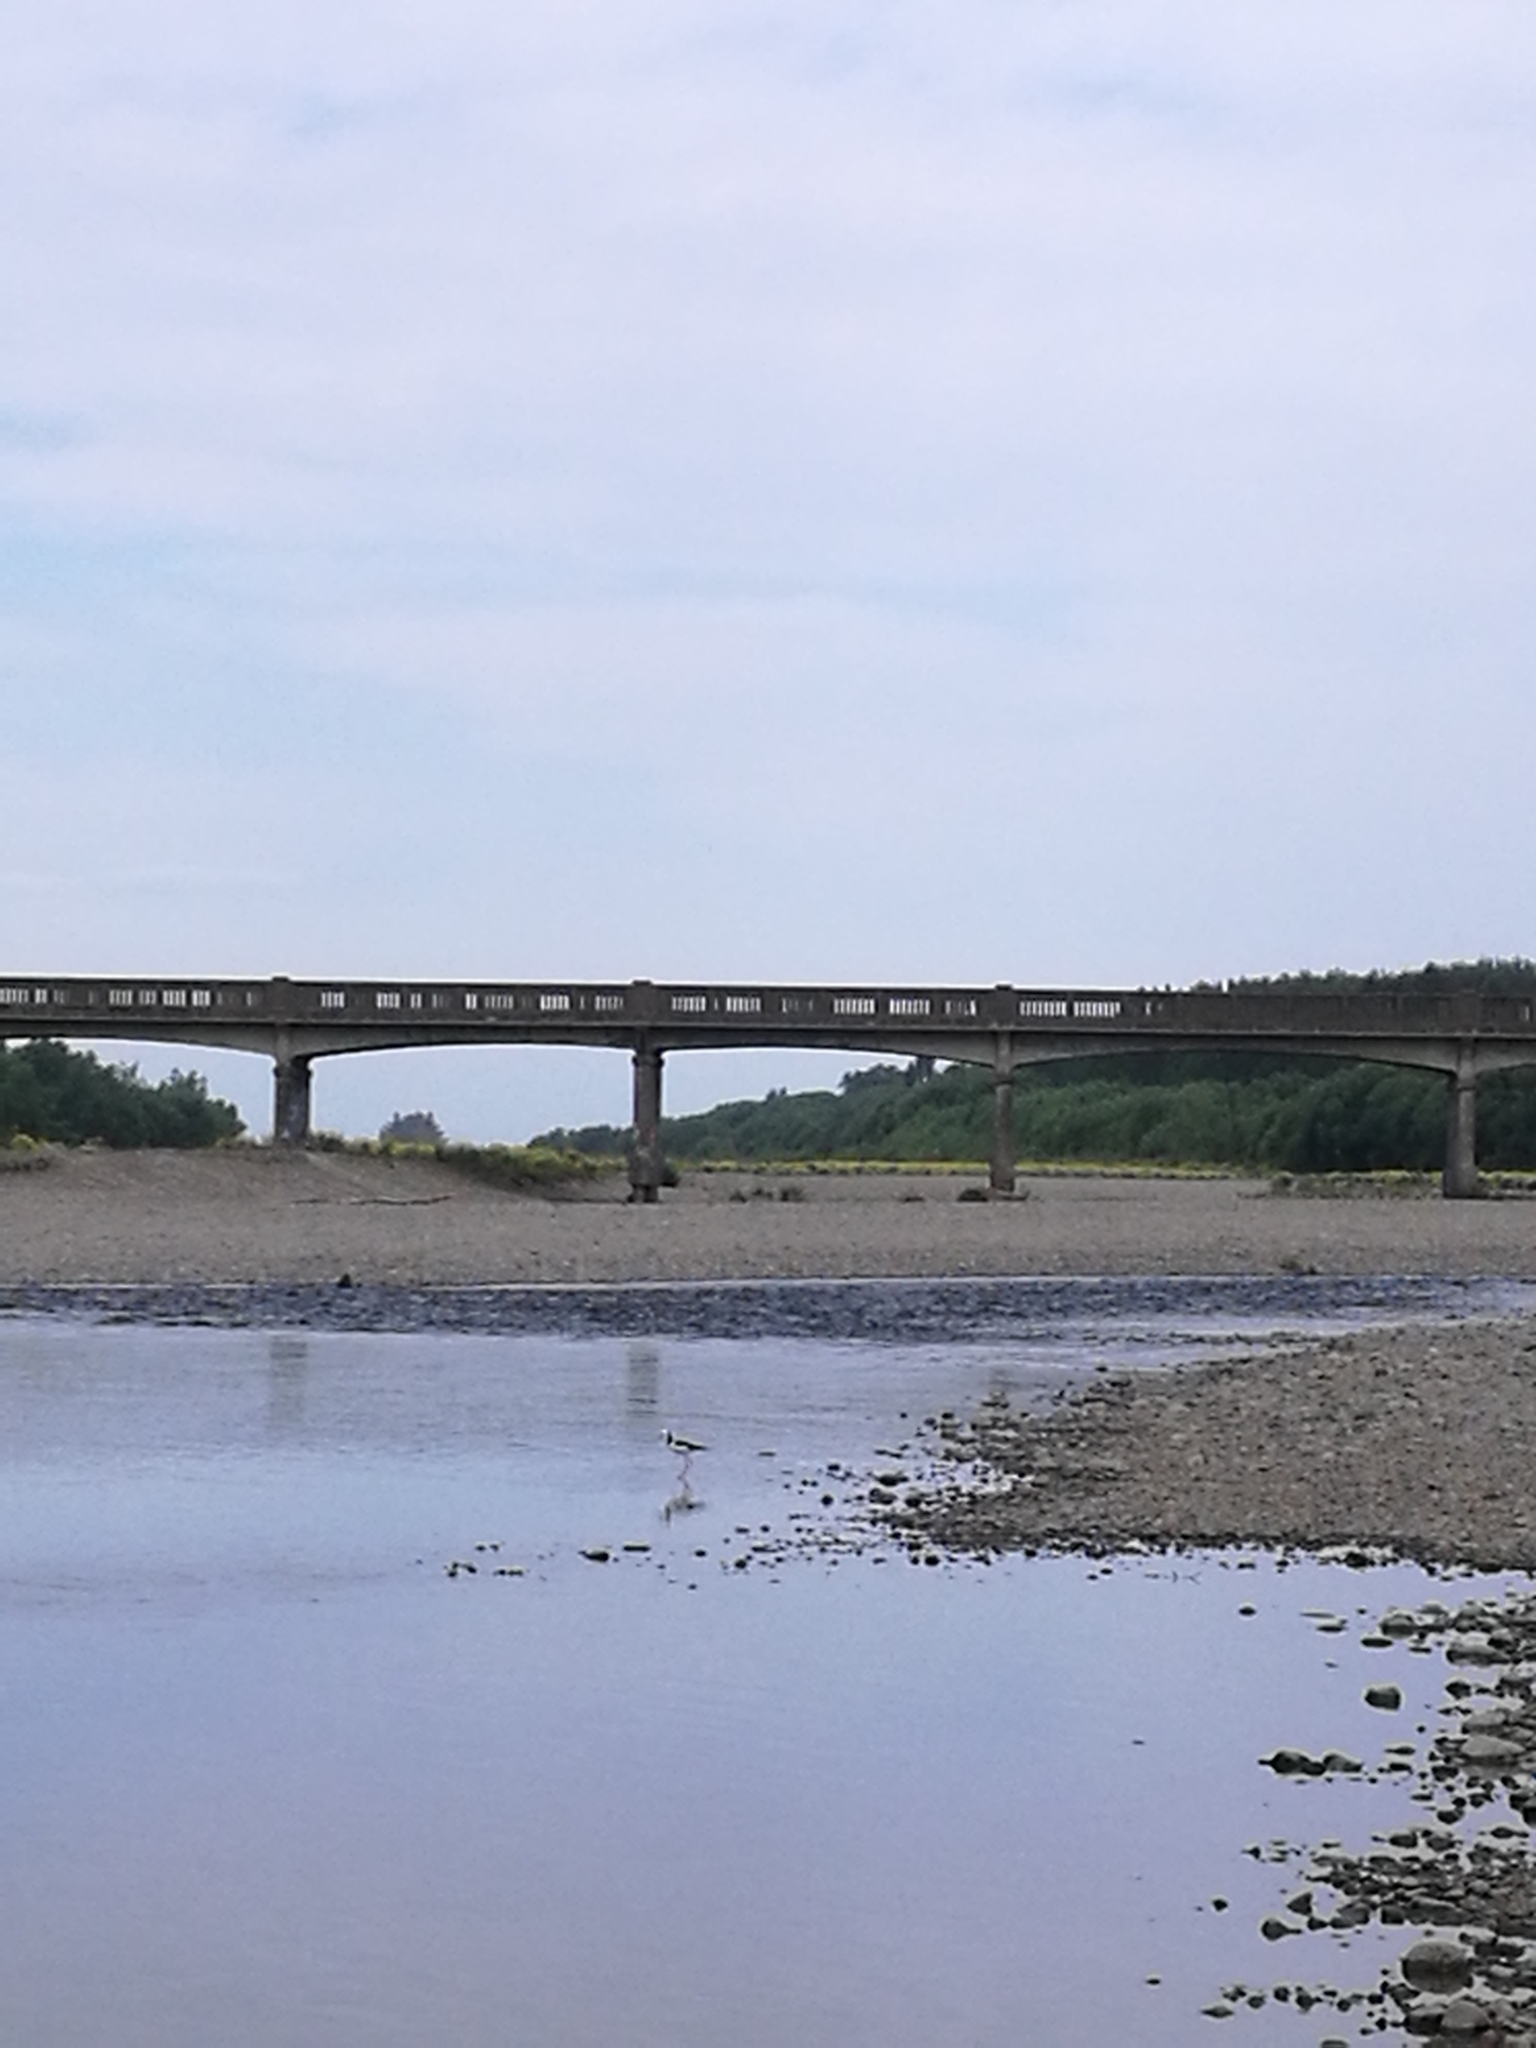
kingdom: Animalia
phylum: Chordata
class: Aves
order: Charadriiformes
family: Recurvirostridae
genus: Himantopus
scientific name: Himantopus leucocephalus
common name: White-headed stilt
